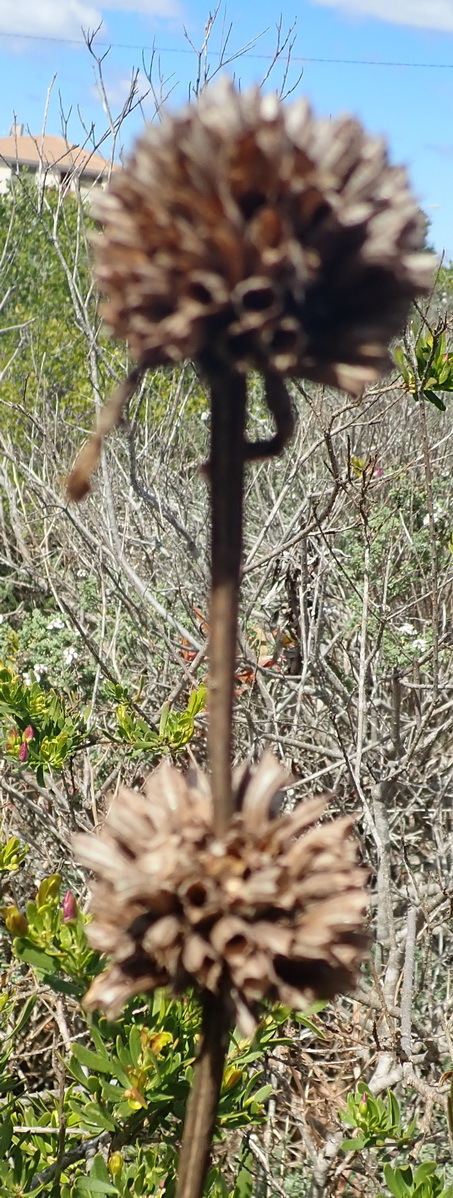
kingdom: Plantae
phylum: Tracheophyta
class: Magnoliopsida
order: Lamiales
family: Lamiaceae
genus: Leonotis
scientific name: Leonotis ocymifolia
